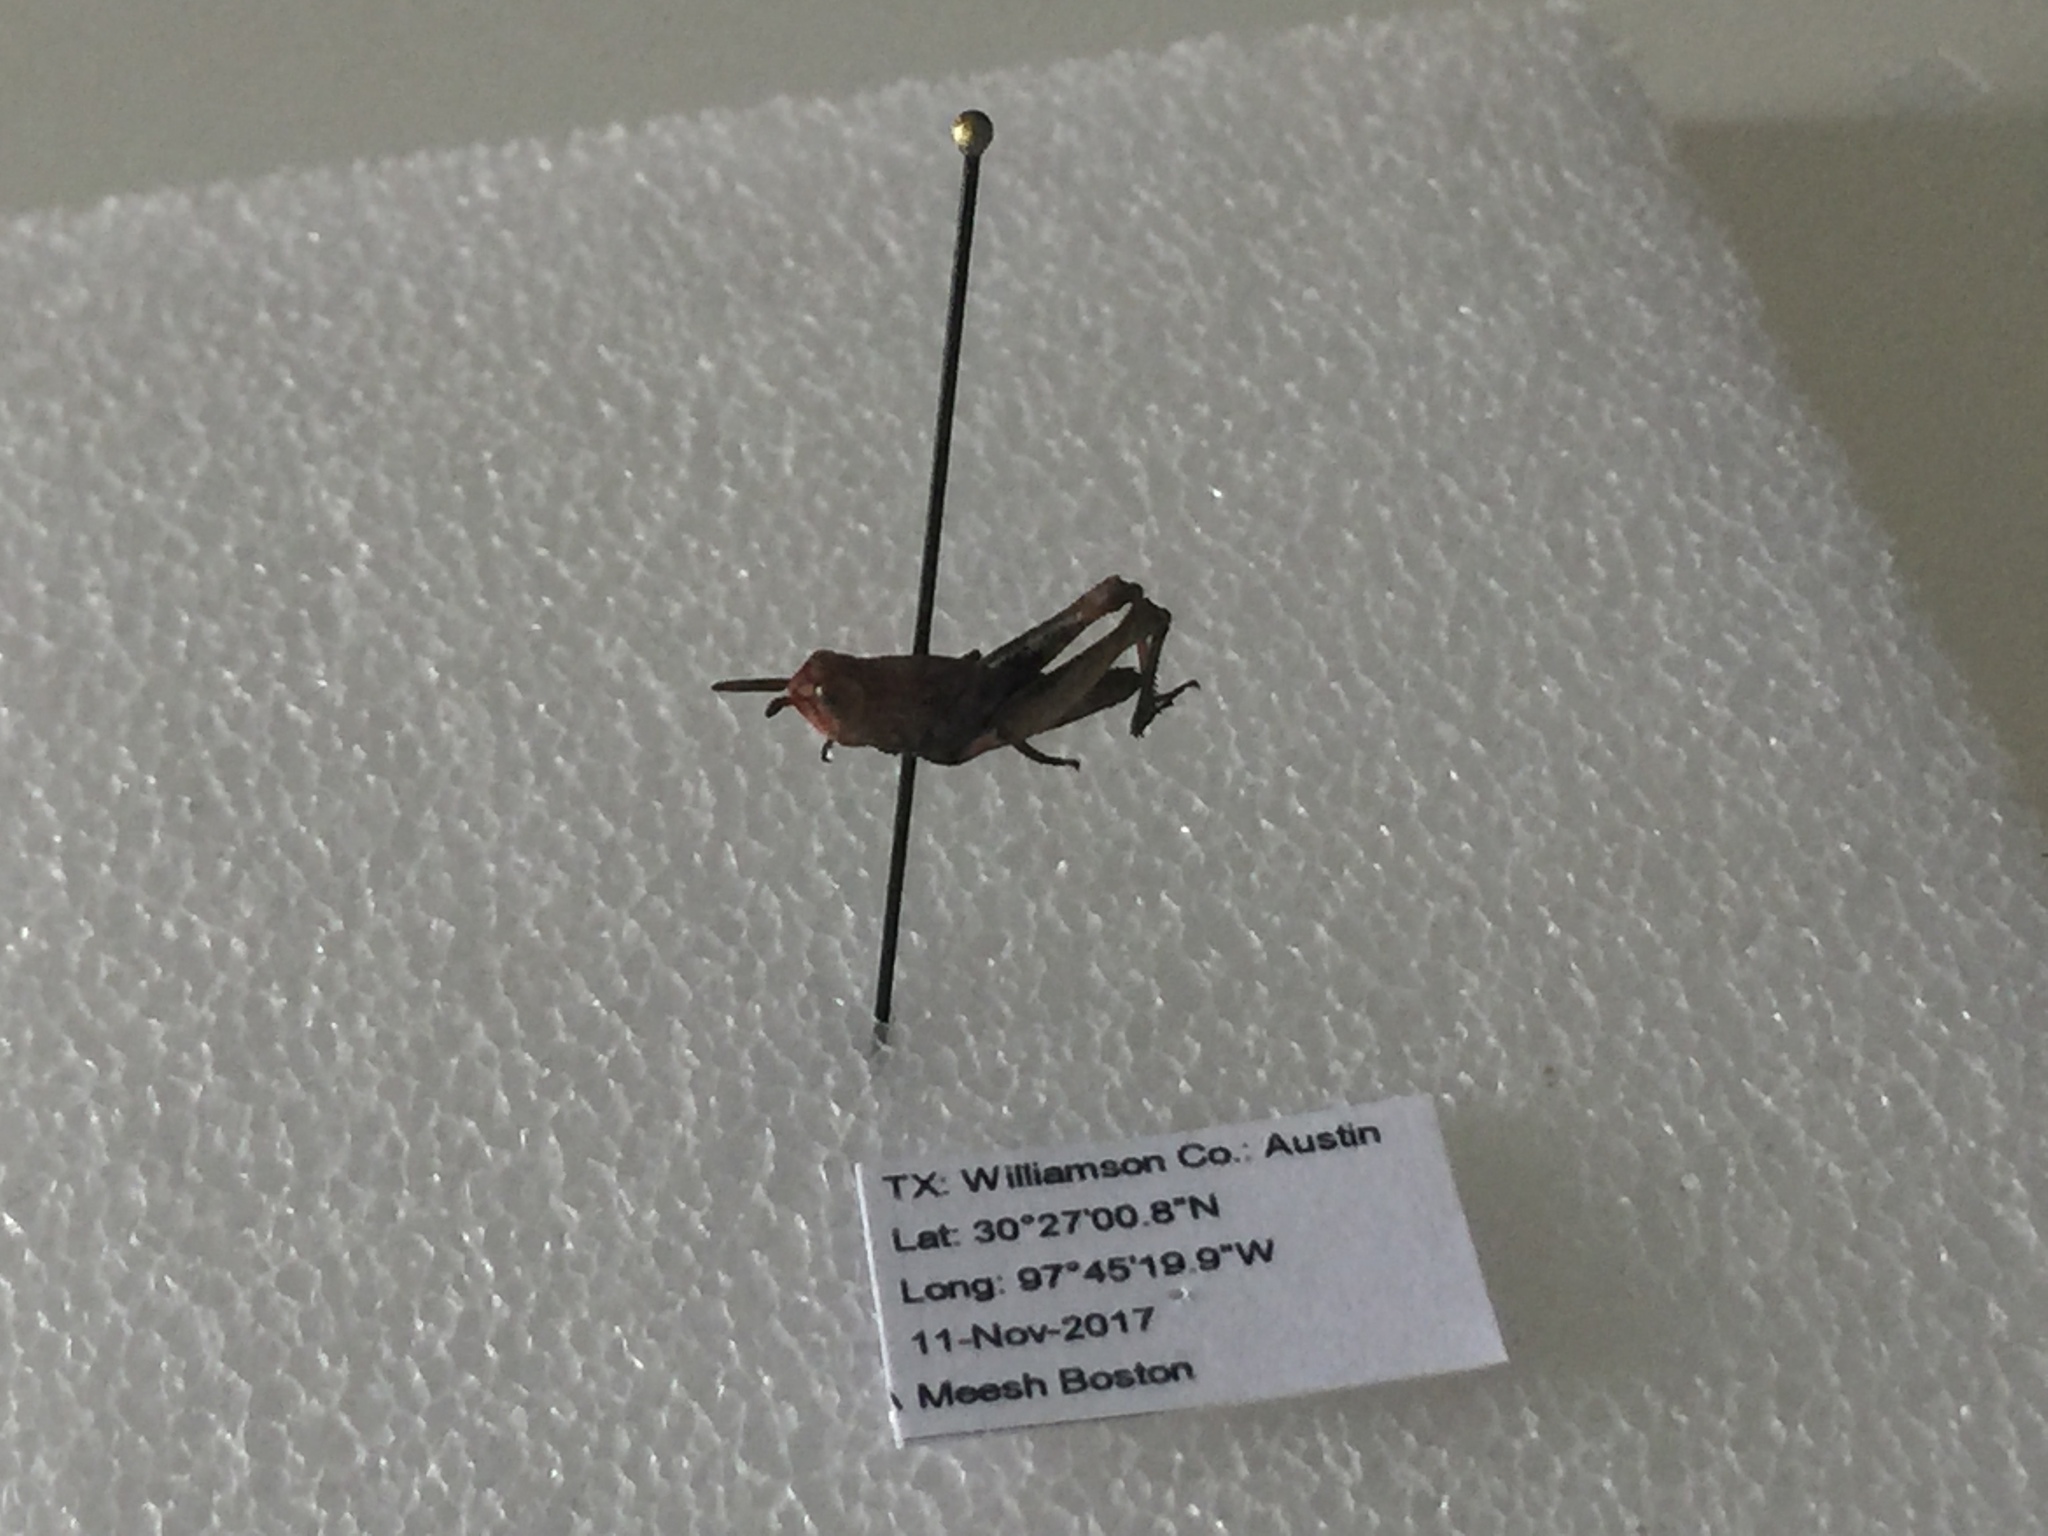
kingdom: Animalia
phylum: Arthropoda
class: Insecta
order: Orthoptera
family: Acrididae
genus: Chortophaga
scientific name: Chortophaga viridifasciata
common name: Green-striped grasshopper
